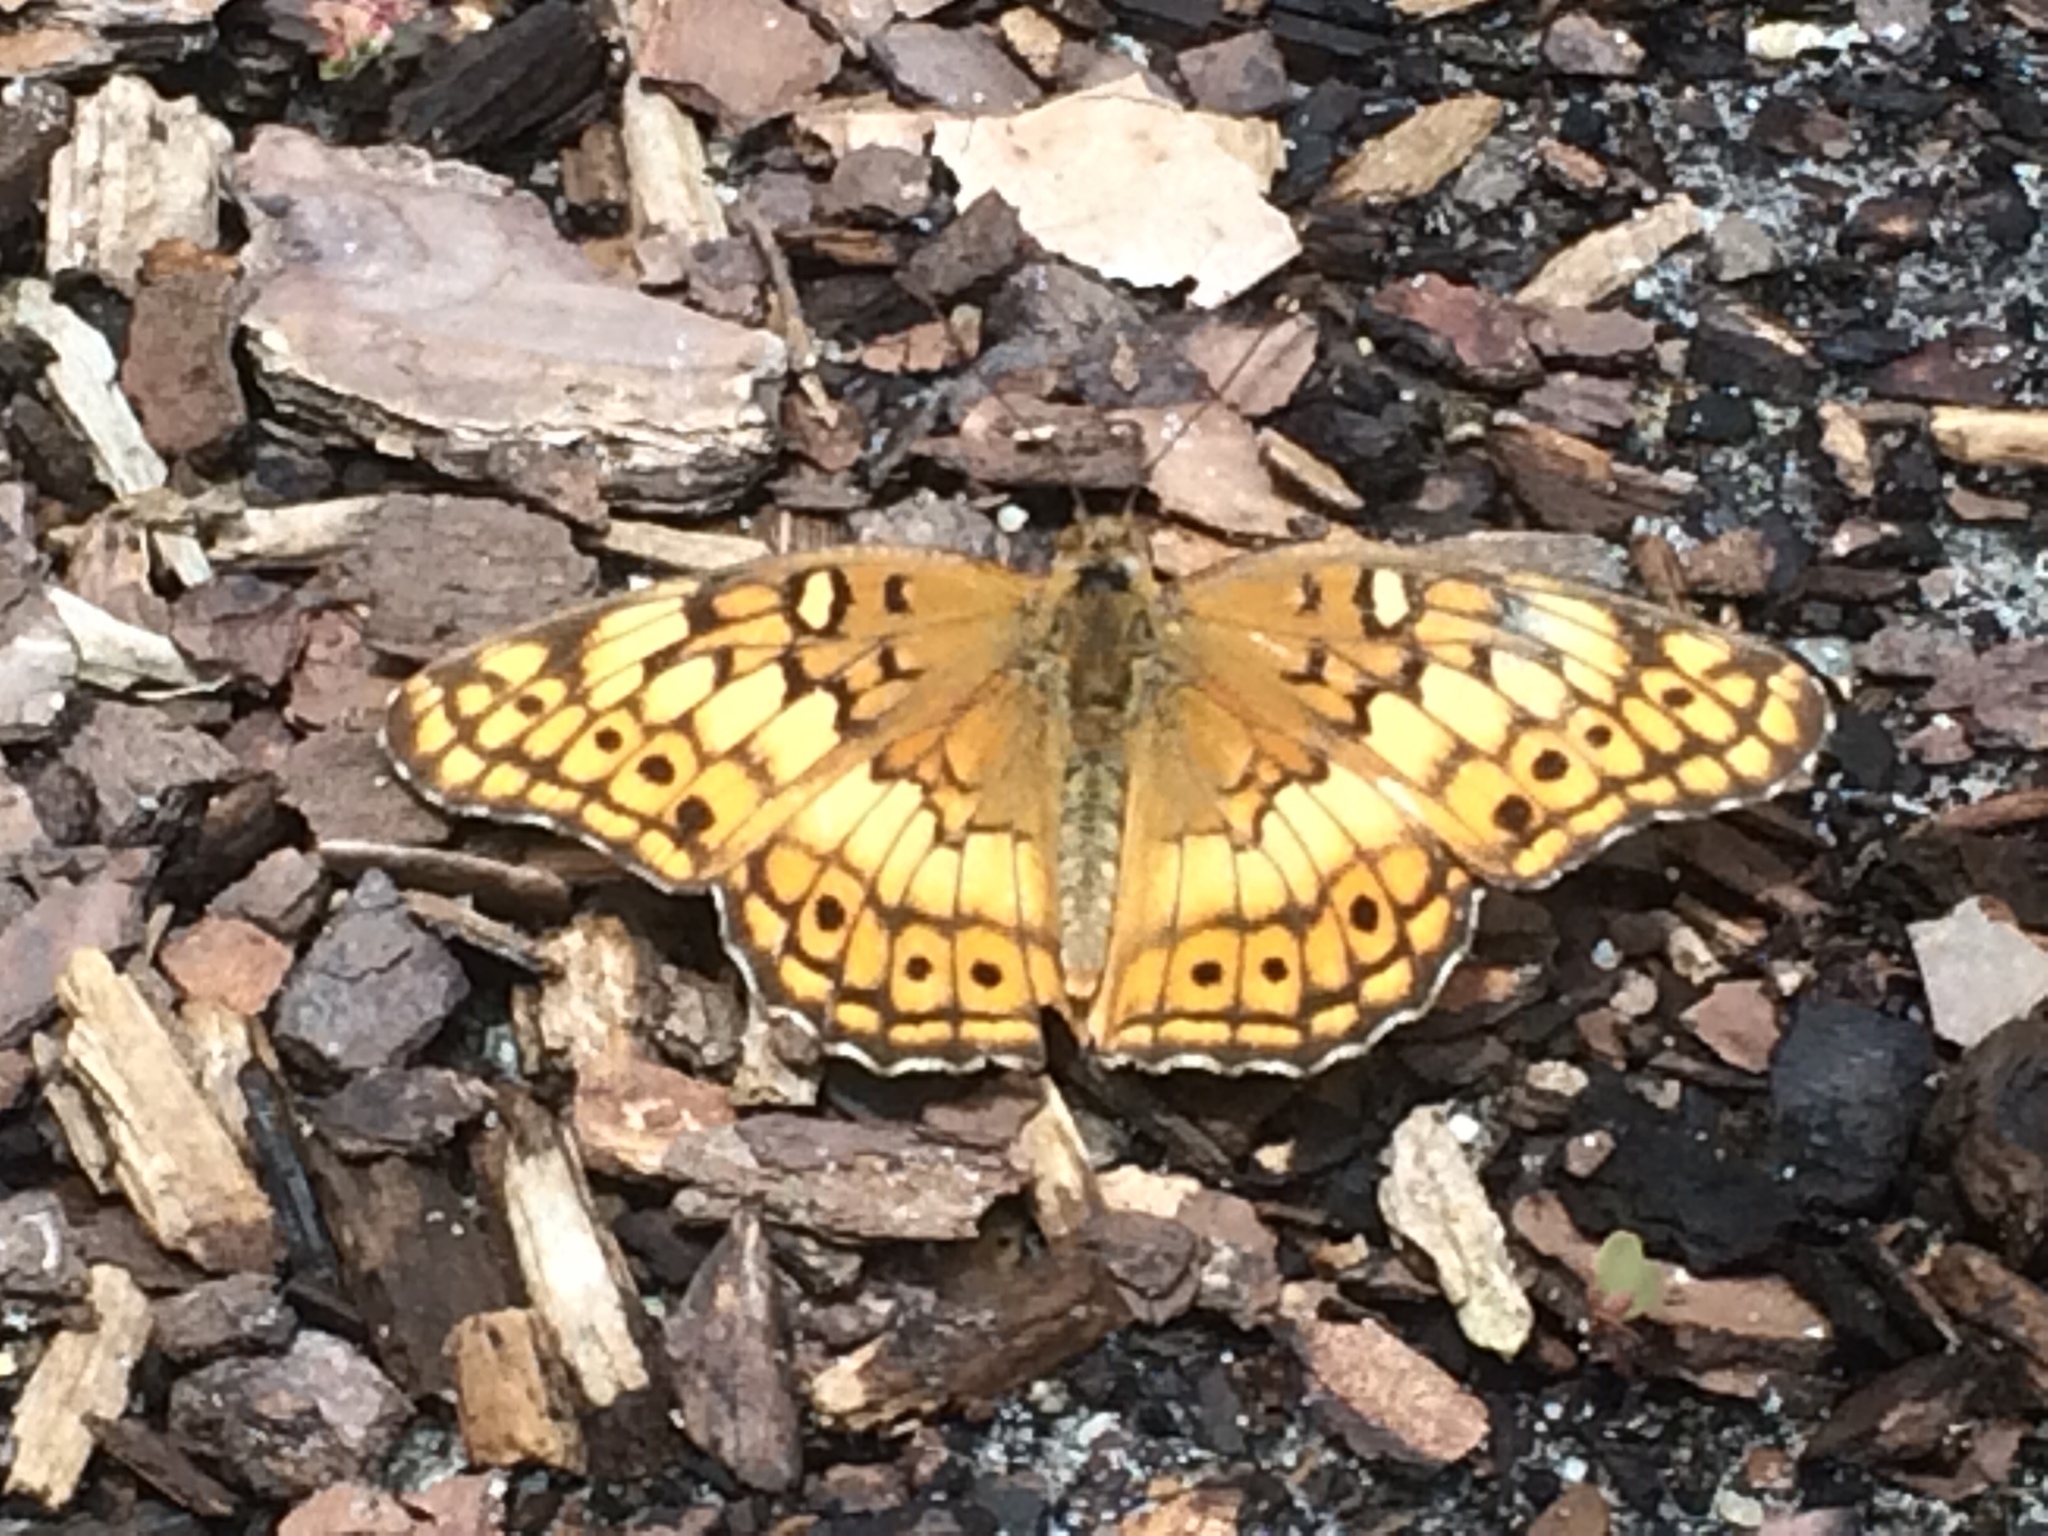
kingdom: Animalia
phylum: Arthropoda
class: Insecta
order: Lepidoptera
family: Nymphalidae
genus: Euptoieta
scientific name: Euptoieta claudia
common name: Variegated fritillary
